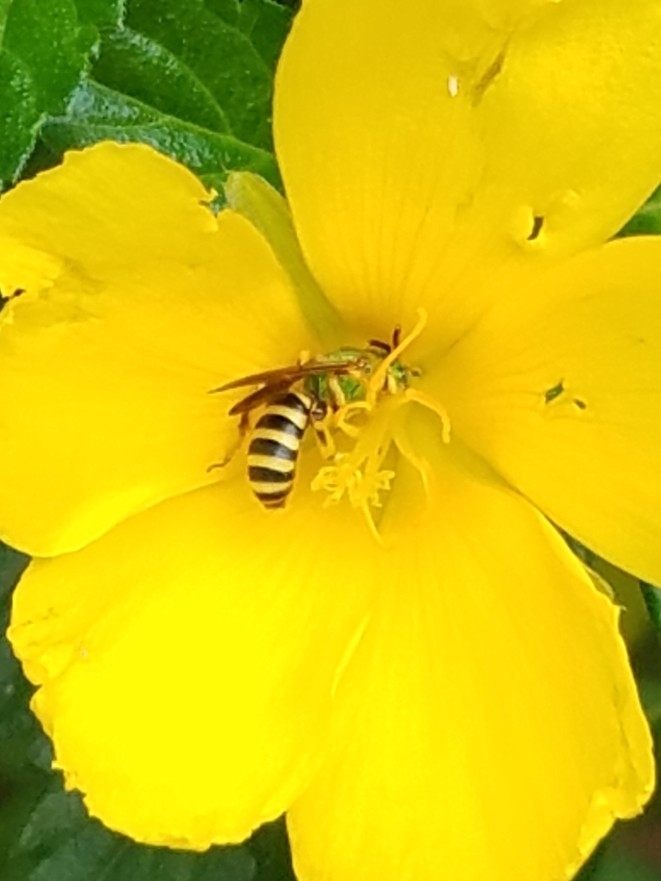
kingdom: Animalia
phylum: Arthropoda
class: Insecta
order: Hymenoptera
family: Halictidae
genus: Agapostemon
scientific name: Agapostemon splendens
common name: Brown-winged striped sweat bee
